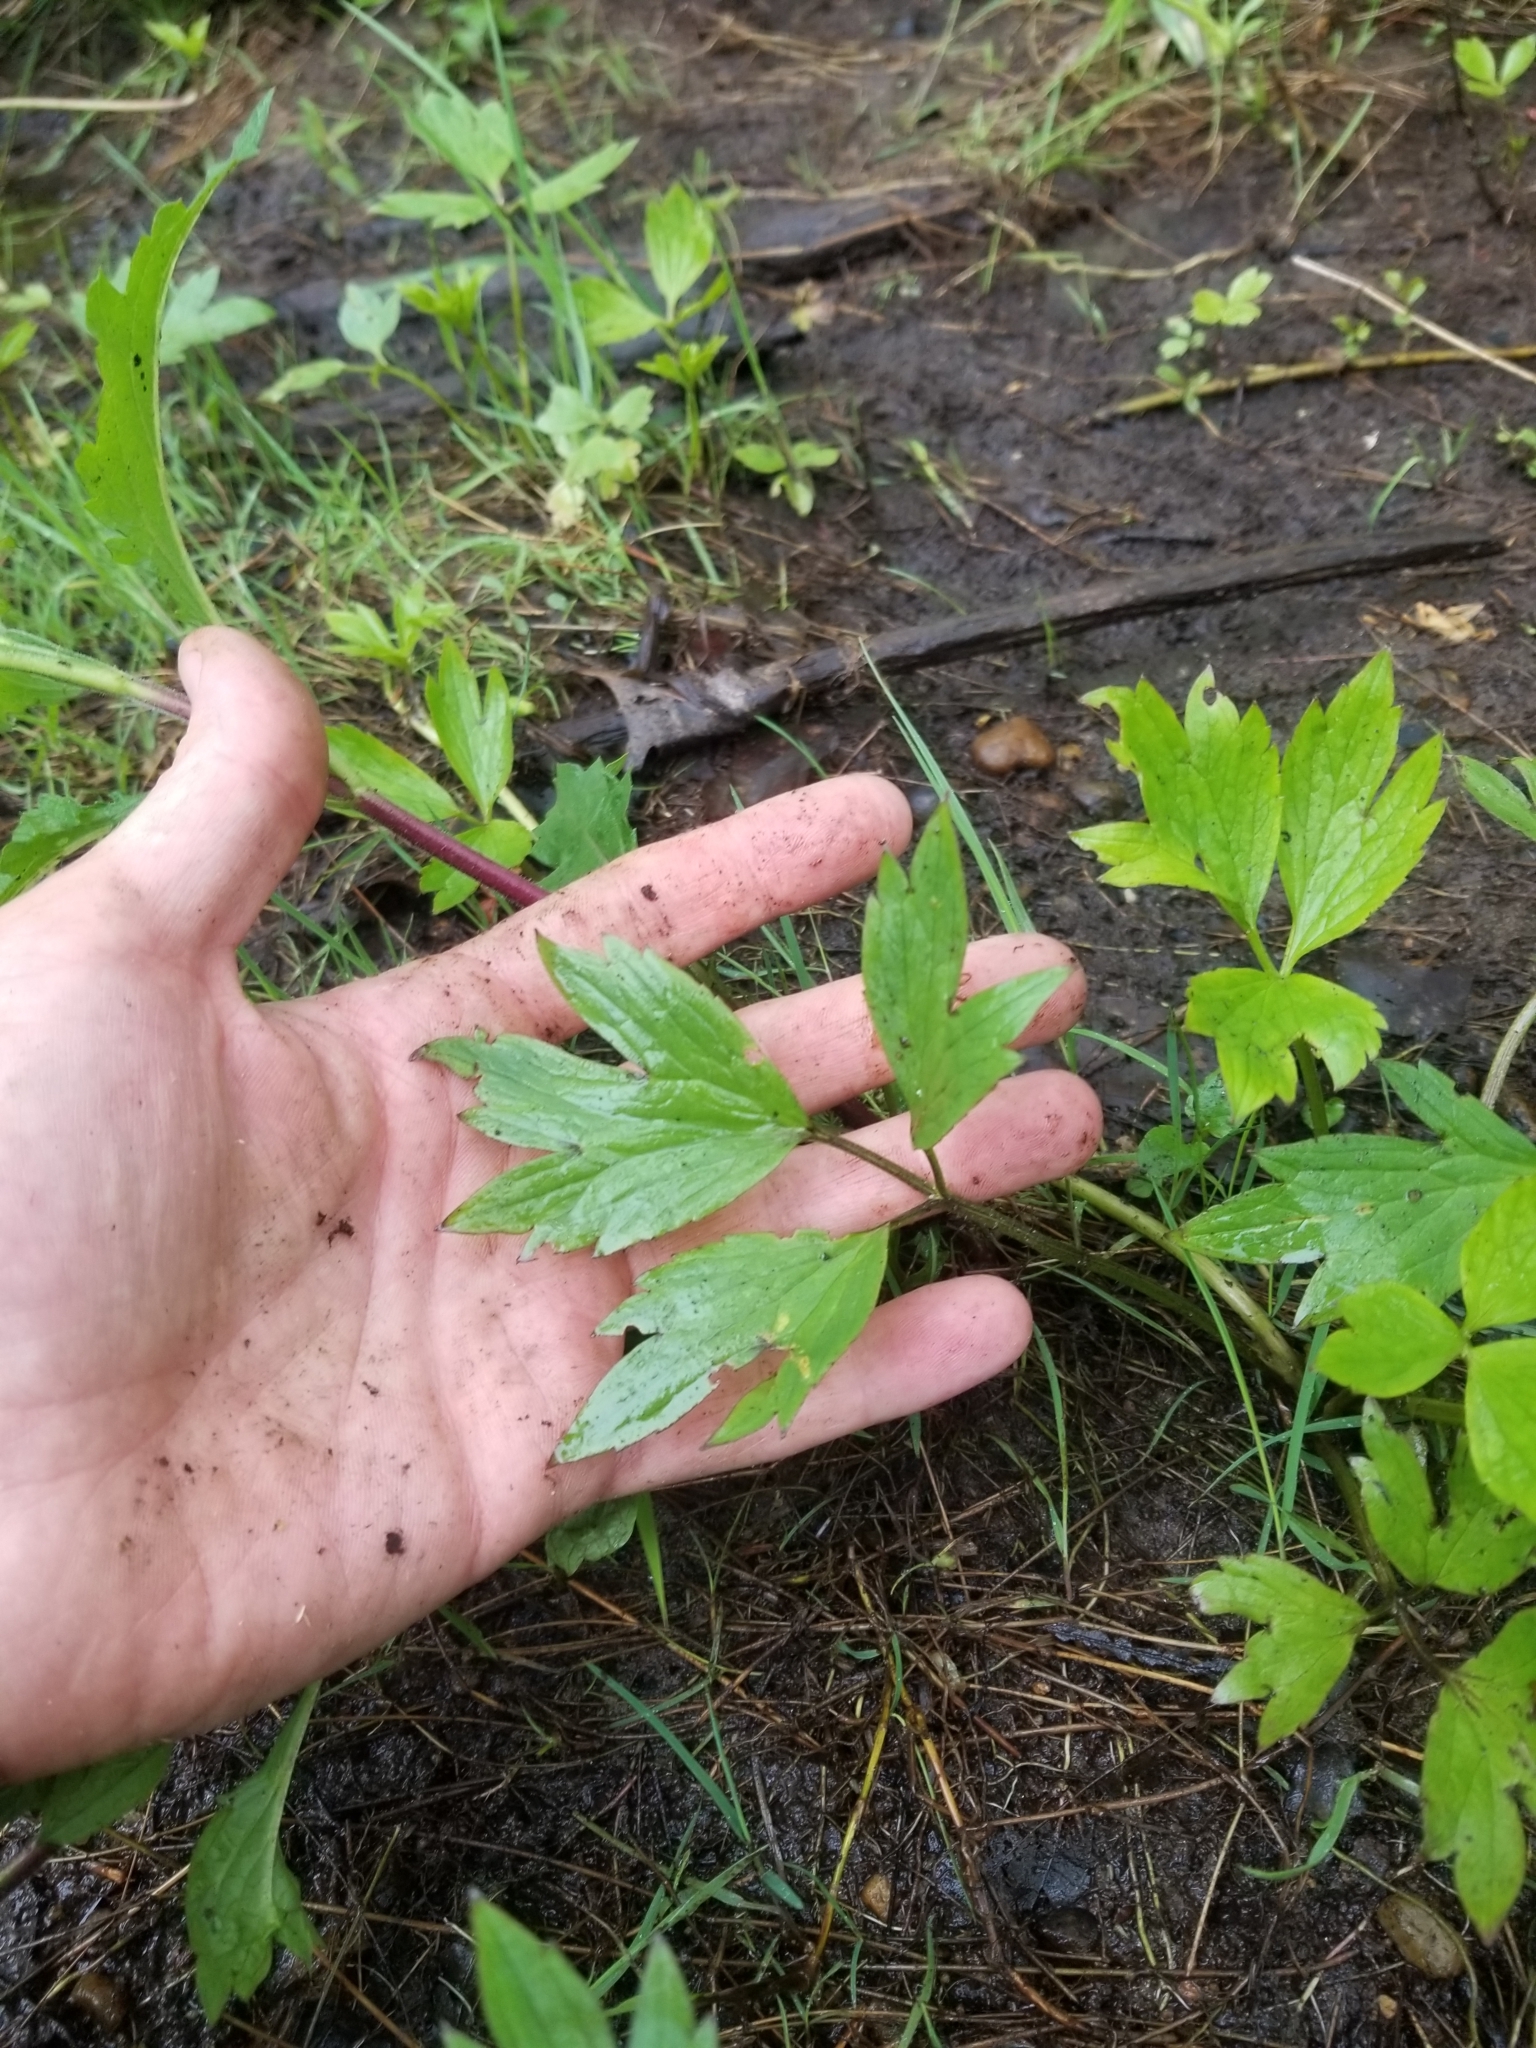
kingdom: Plantae
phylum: Tracheophyta
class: Magnoliopsida
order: Ranunculales
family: Ranunculaceae
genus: Ranunculus
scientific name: Ranunculus hispidus
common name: Bristly buttercup
